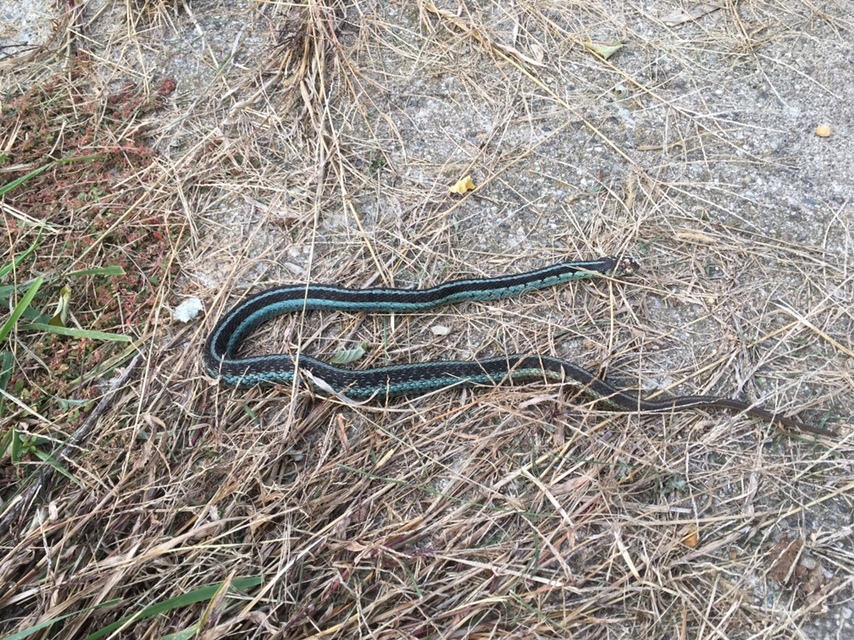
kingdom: Animalia
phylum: Chordata
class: Squamata
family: Colubridae
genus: Thamnophis
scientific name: Thamnophis sirtalis
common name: Common garter snake
